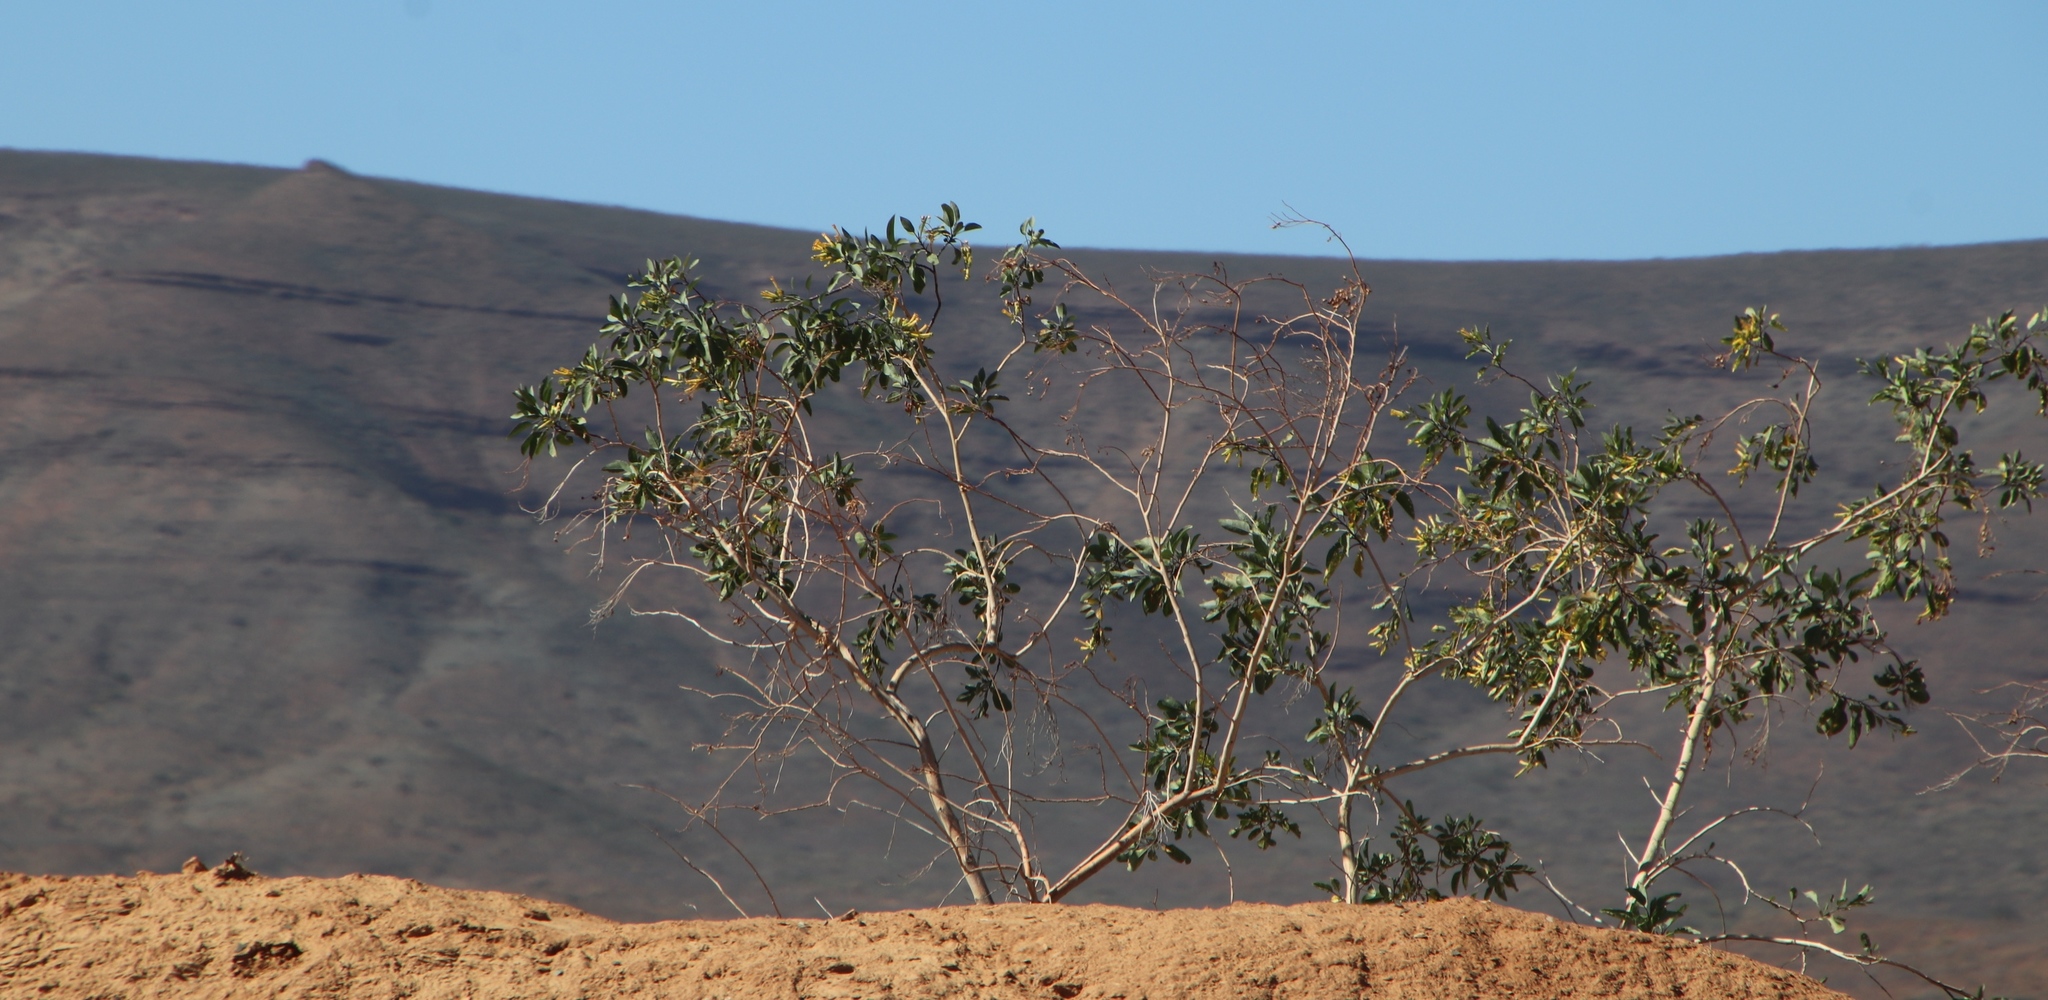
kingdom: Plantae
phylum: Tracheophyta
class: Magnoliopsida
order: Solanales
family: Solanaceae
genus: Nicotiana
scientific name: Nicotiana glauca
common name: Tree tobacco
